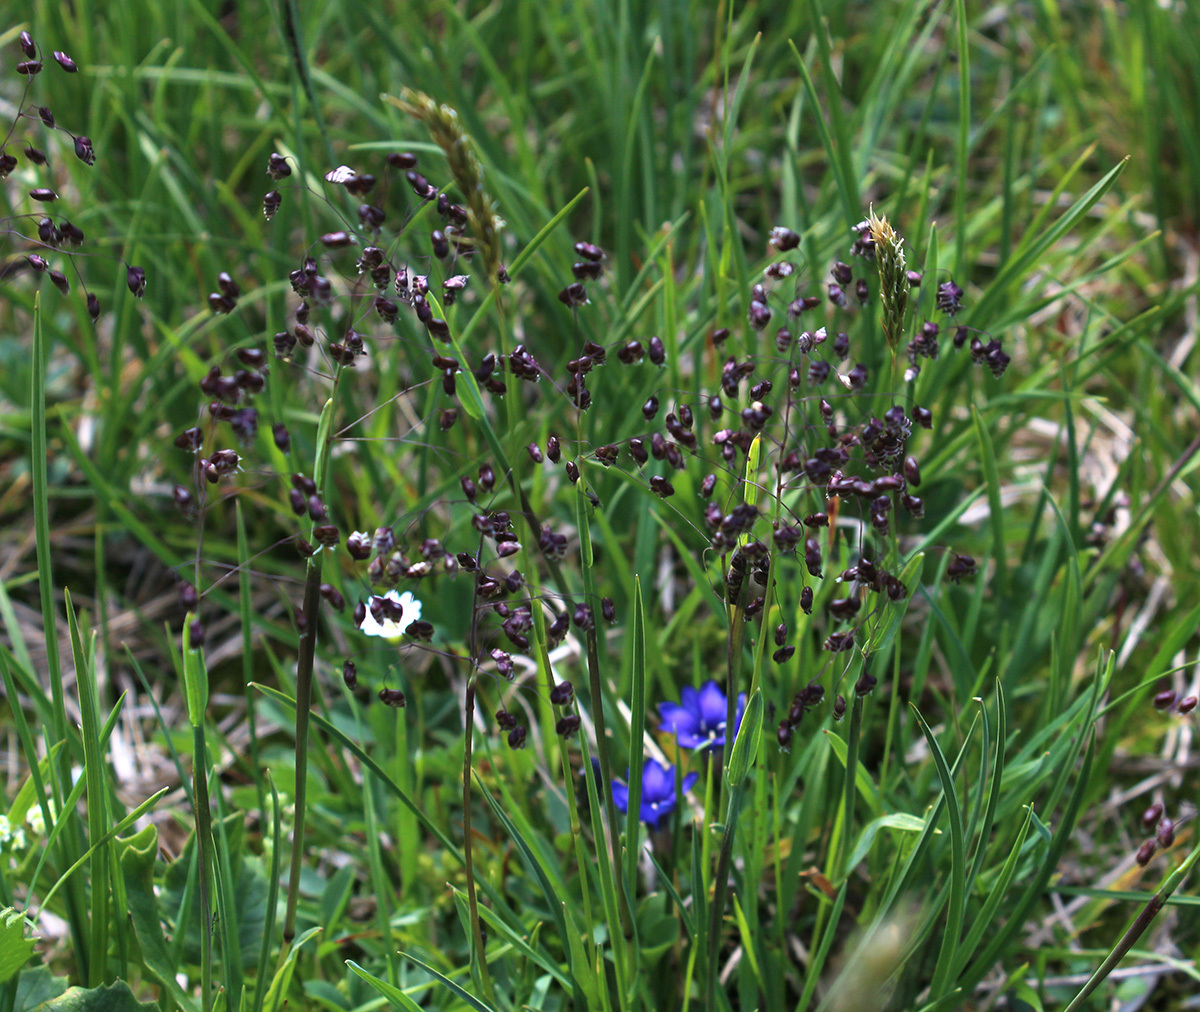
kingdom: Plantae
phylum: Tracheophyta
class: Liliopsida
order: Poales
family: Poaceae
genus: Briza
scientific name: Briza marcowiczii
